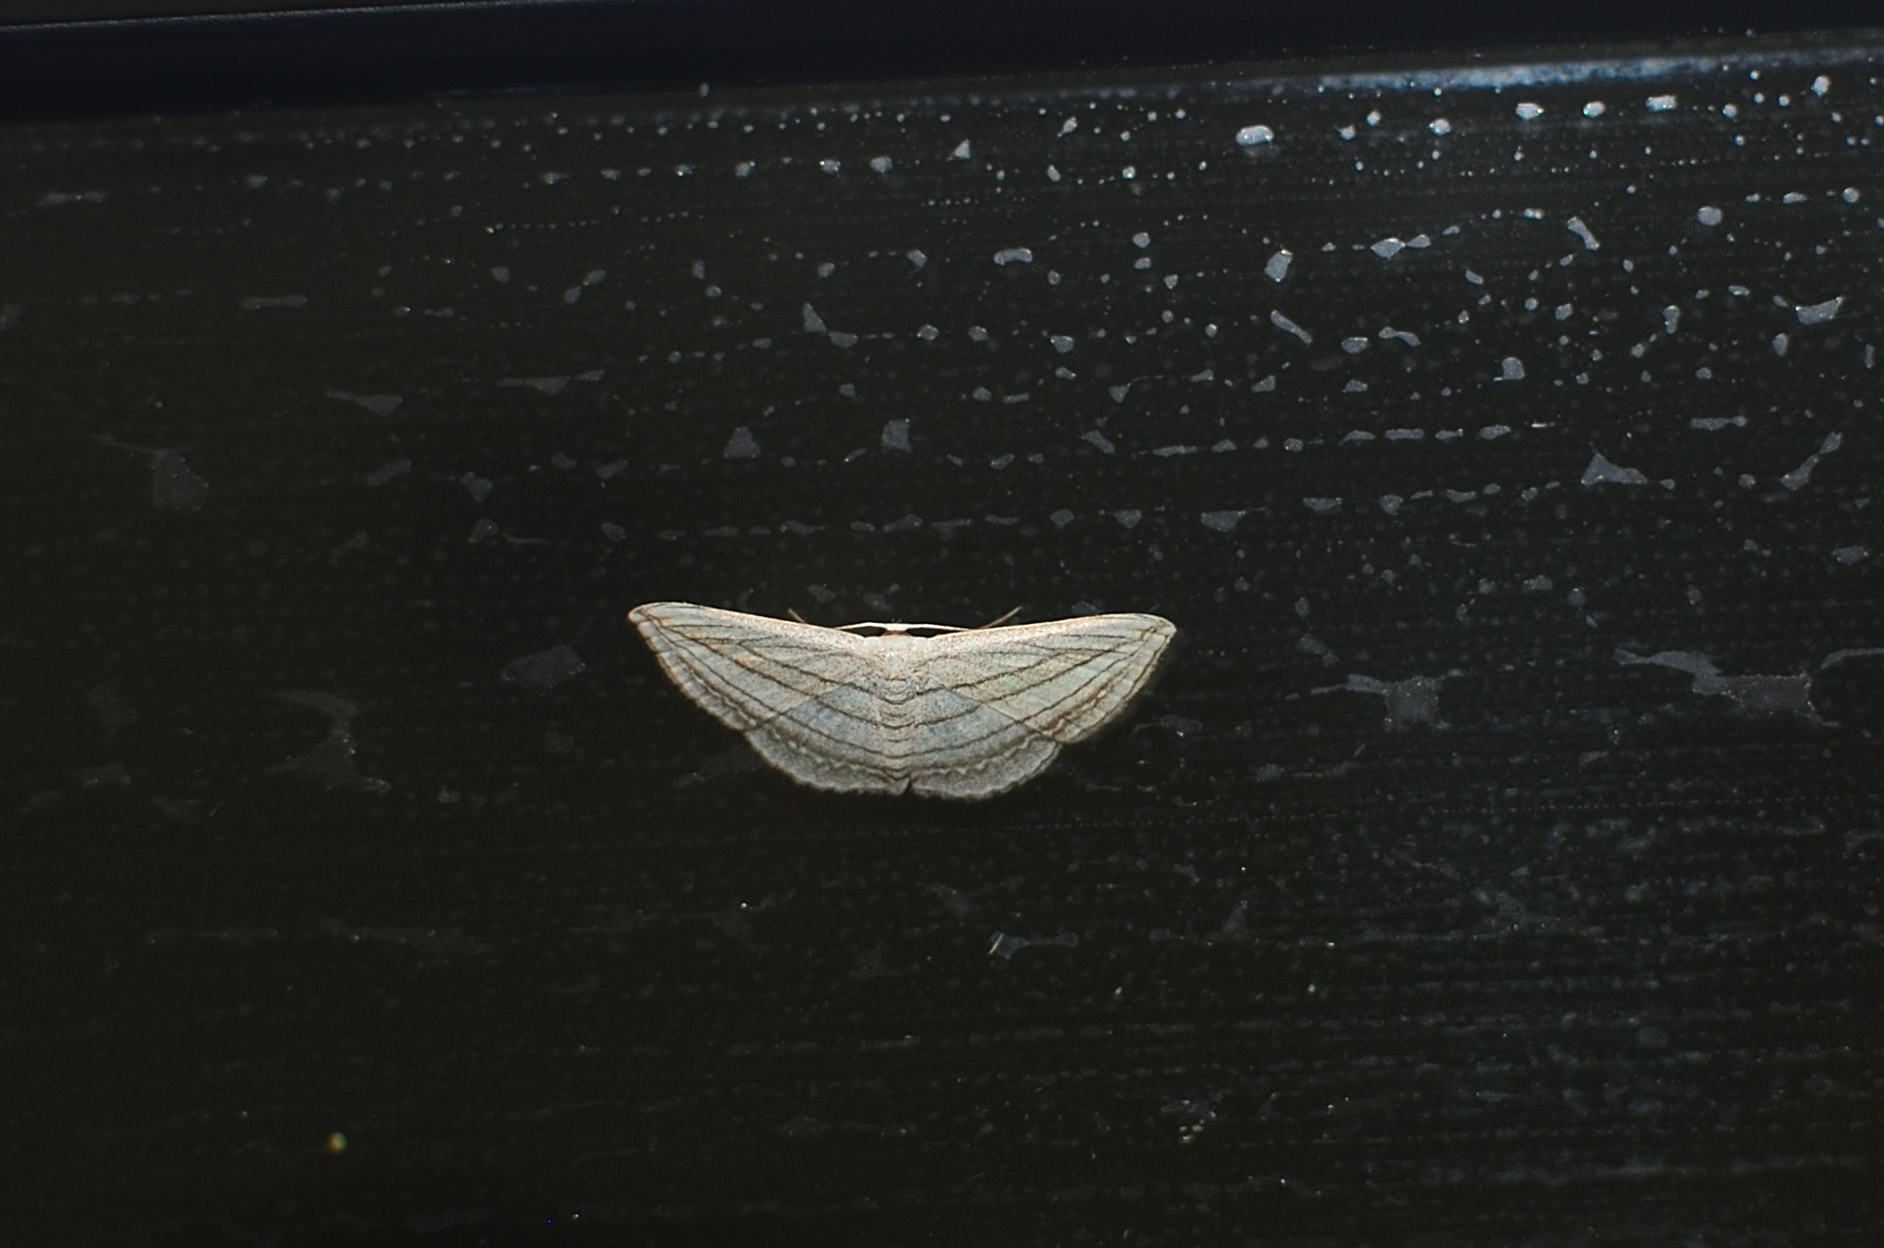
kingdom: Animalia
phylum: Arthropoda
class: Insecta
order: Lepidoptera
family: Geometridae
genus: Scopula
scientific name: Scopula opicata
